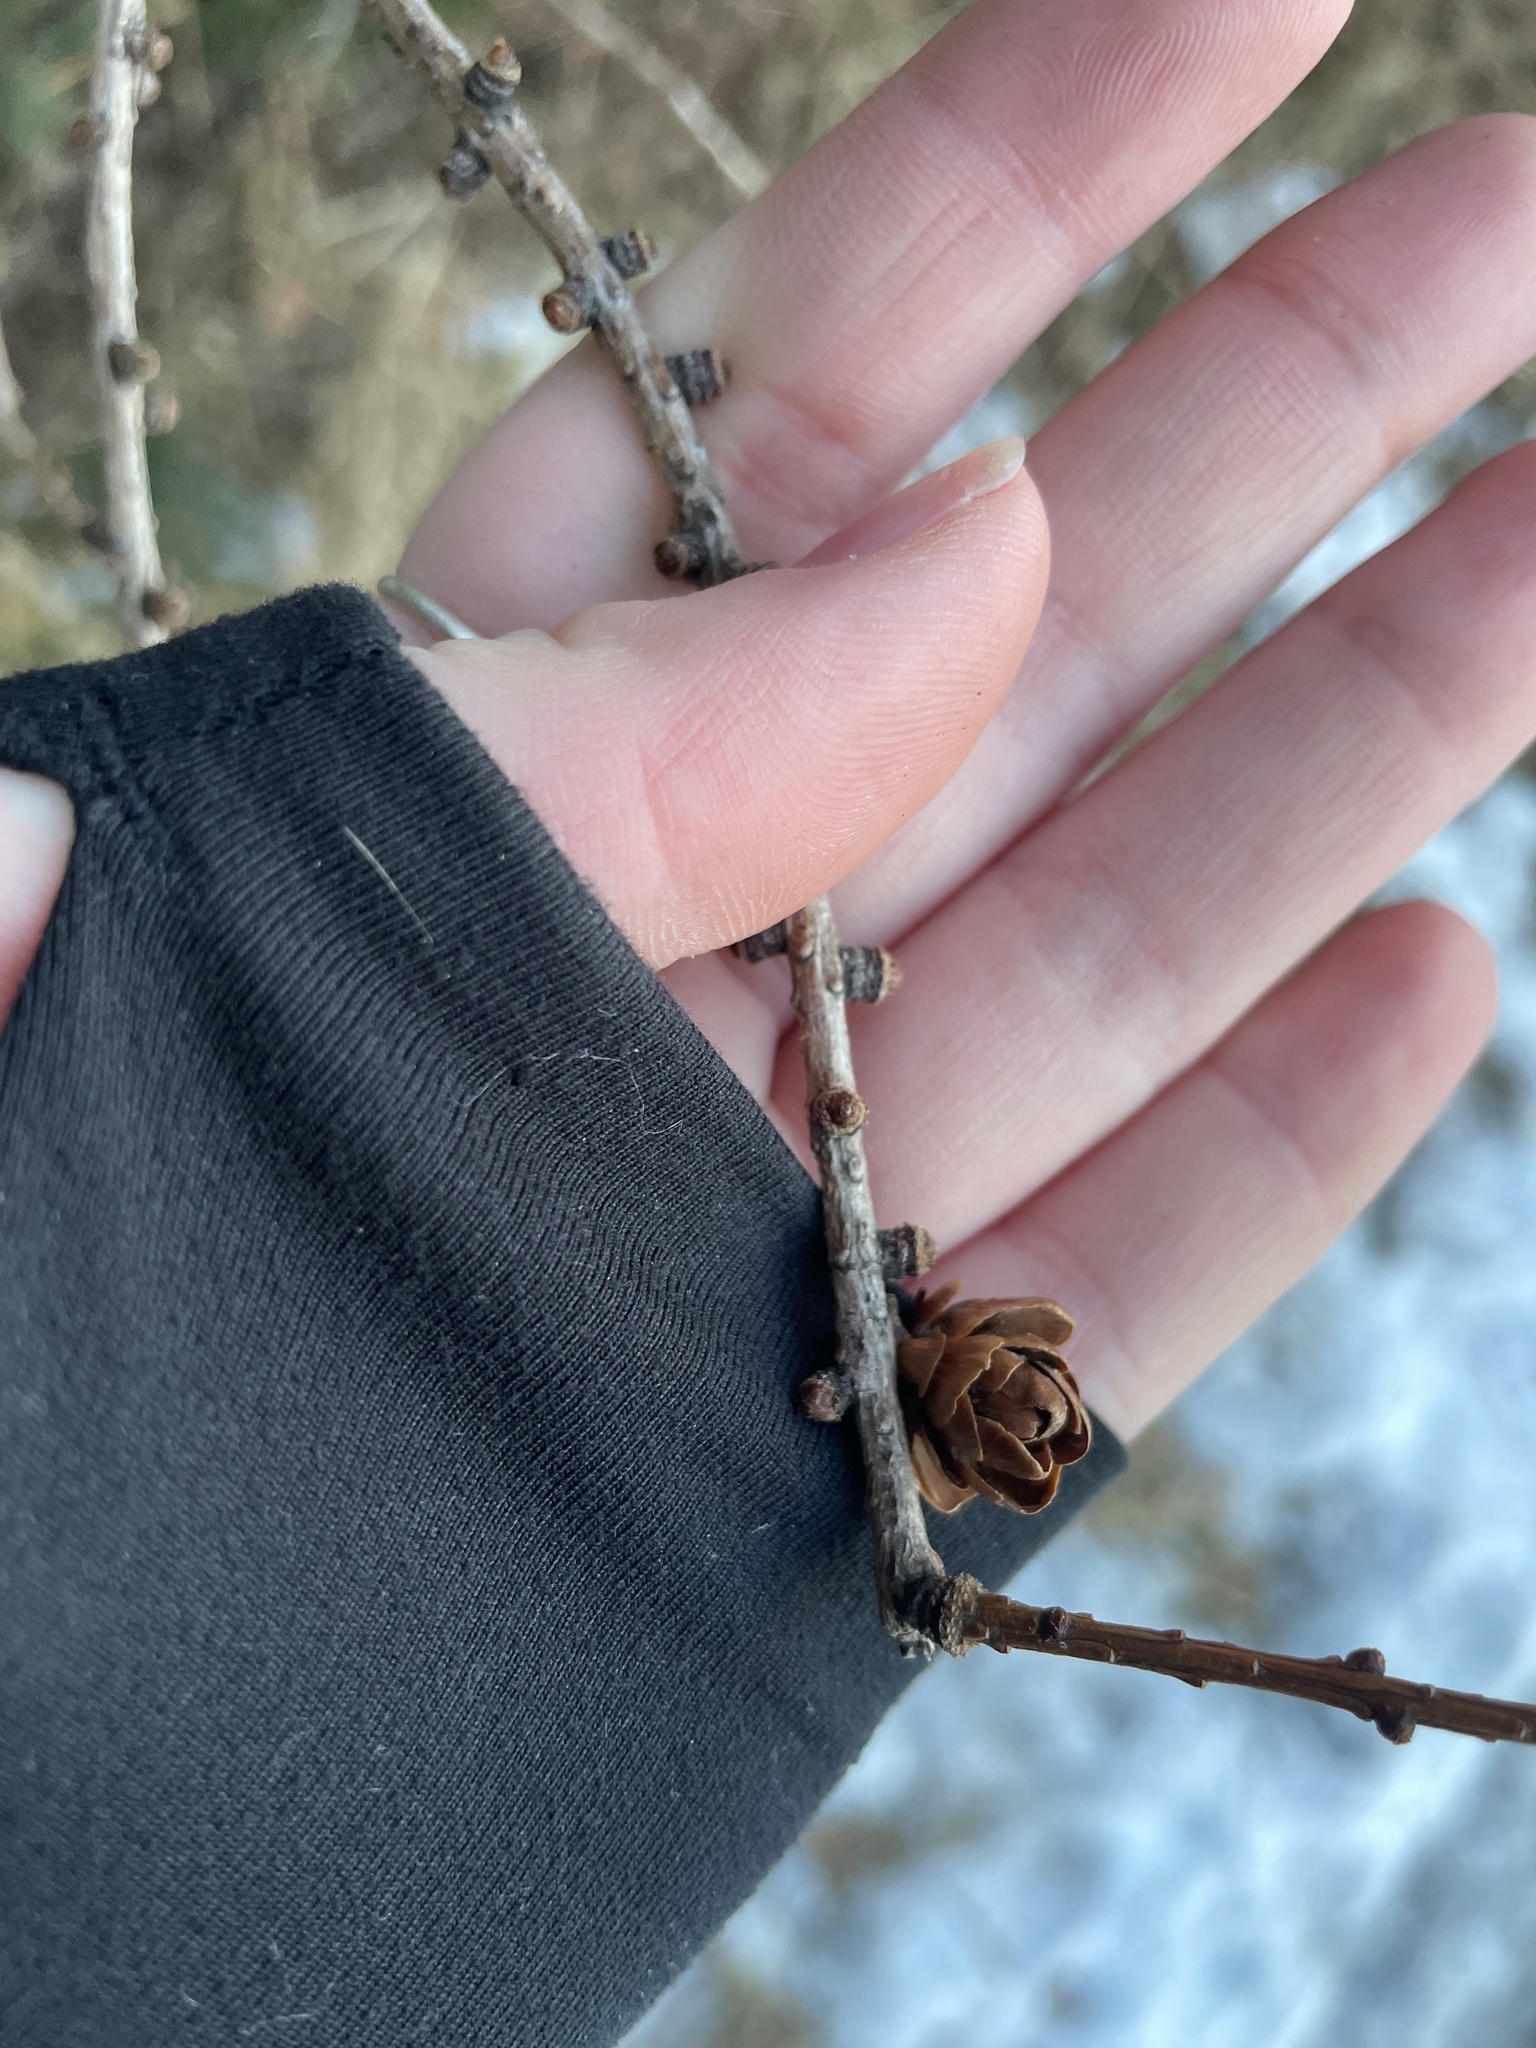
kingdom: Plantae
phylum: Tracheophyta
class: Pinopsida
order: Pinales
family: Pinaceae
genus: Larix
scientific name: Larix laricina
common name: American larch
